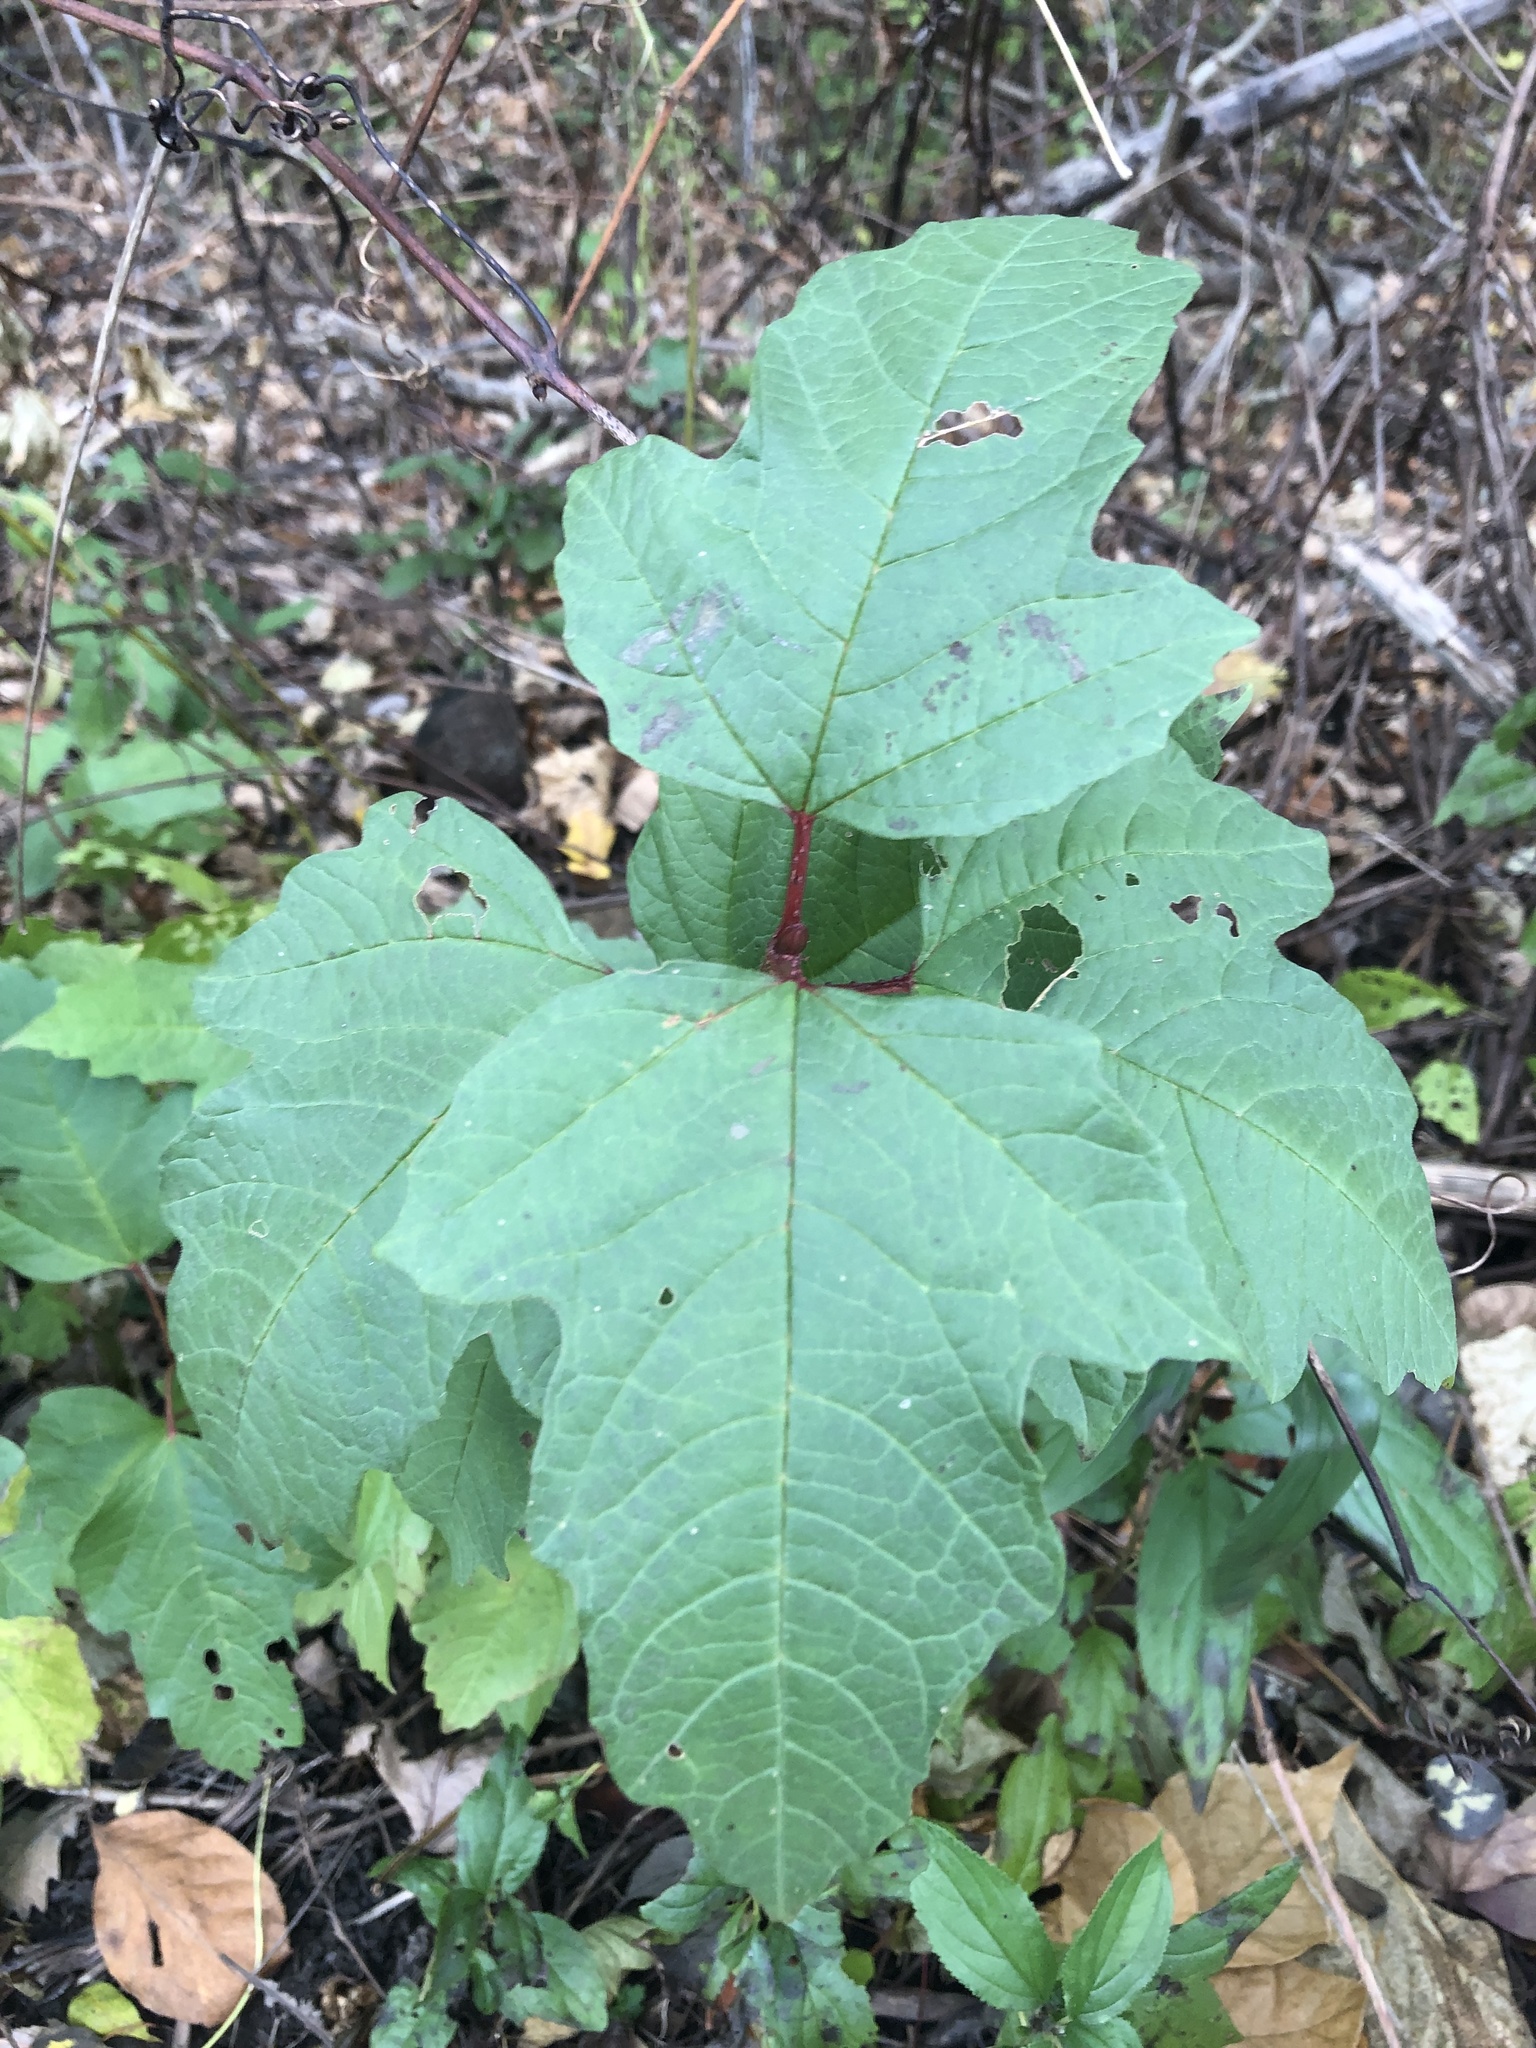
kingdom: Plantae
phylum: Tracheophyta
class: Magnoliopsida
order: Dipsacales
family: Viburnaceae
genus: Viburnum
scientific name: Viburnum opulus
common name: Guelder-rose
